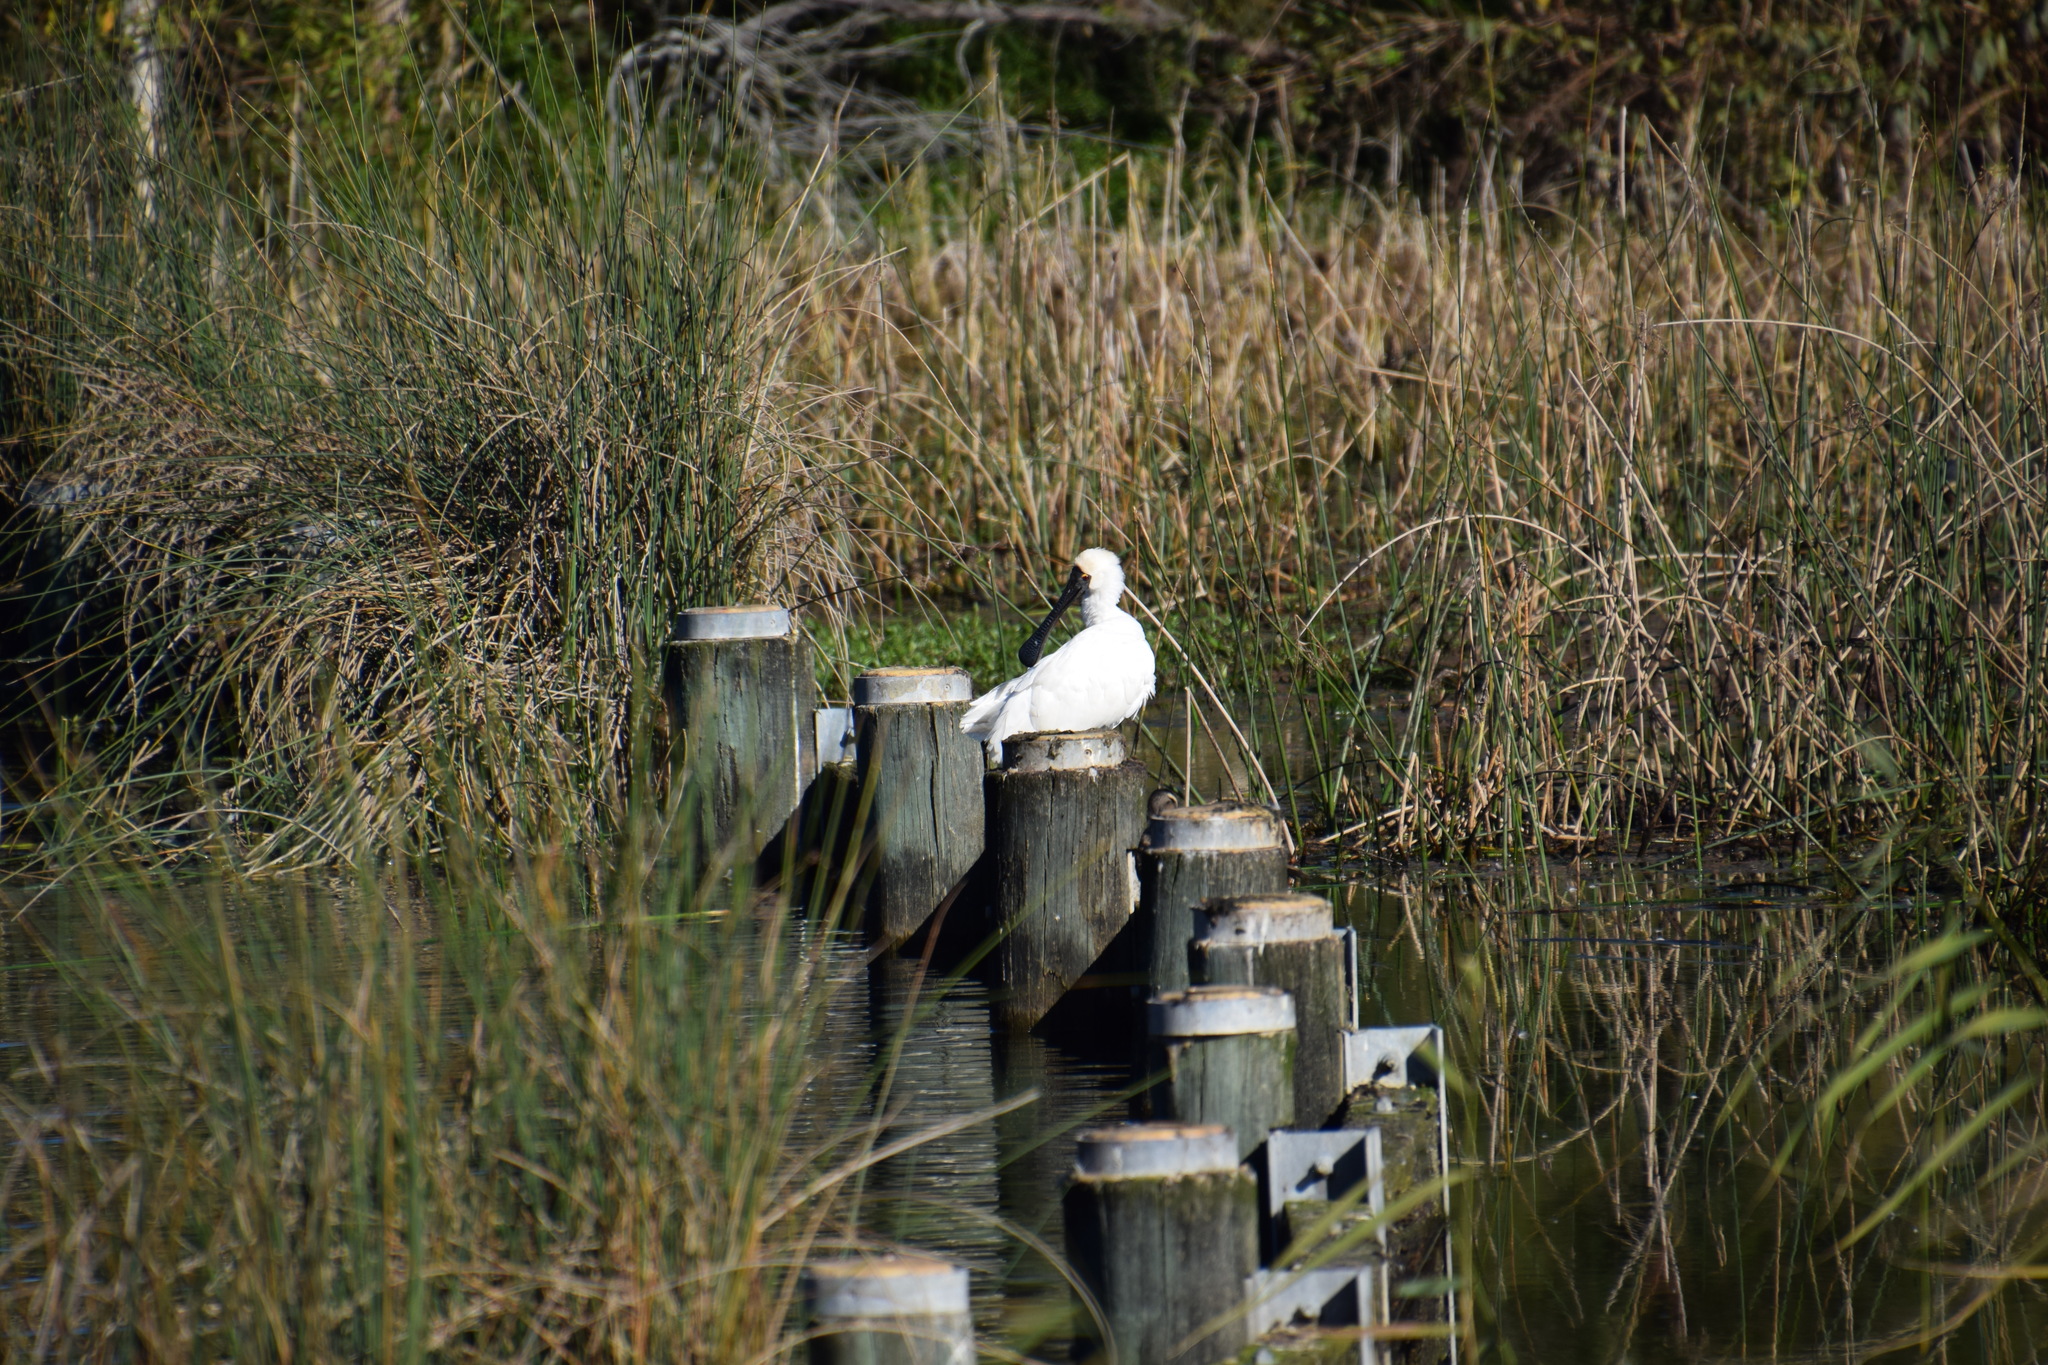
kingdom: Animalia
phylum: Chordata
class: Aves
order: Pelecaniformes
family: Threskiornithidae
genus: Platalea
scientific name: Platalea regia
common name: Royal spoonbill
